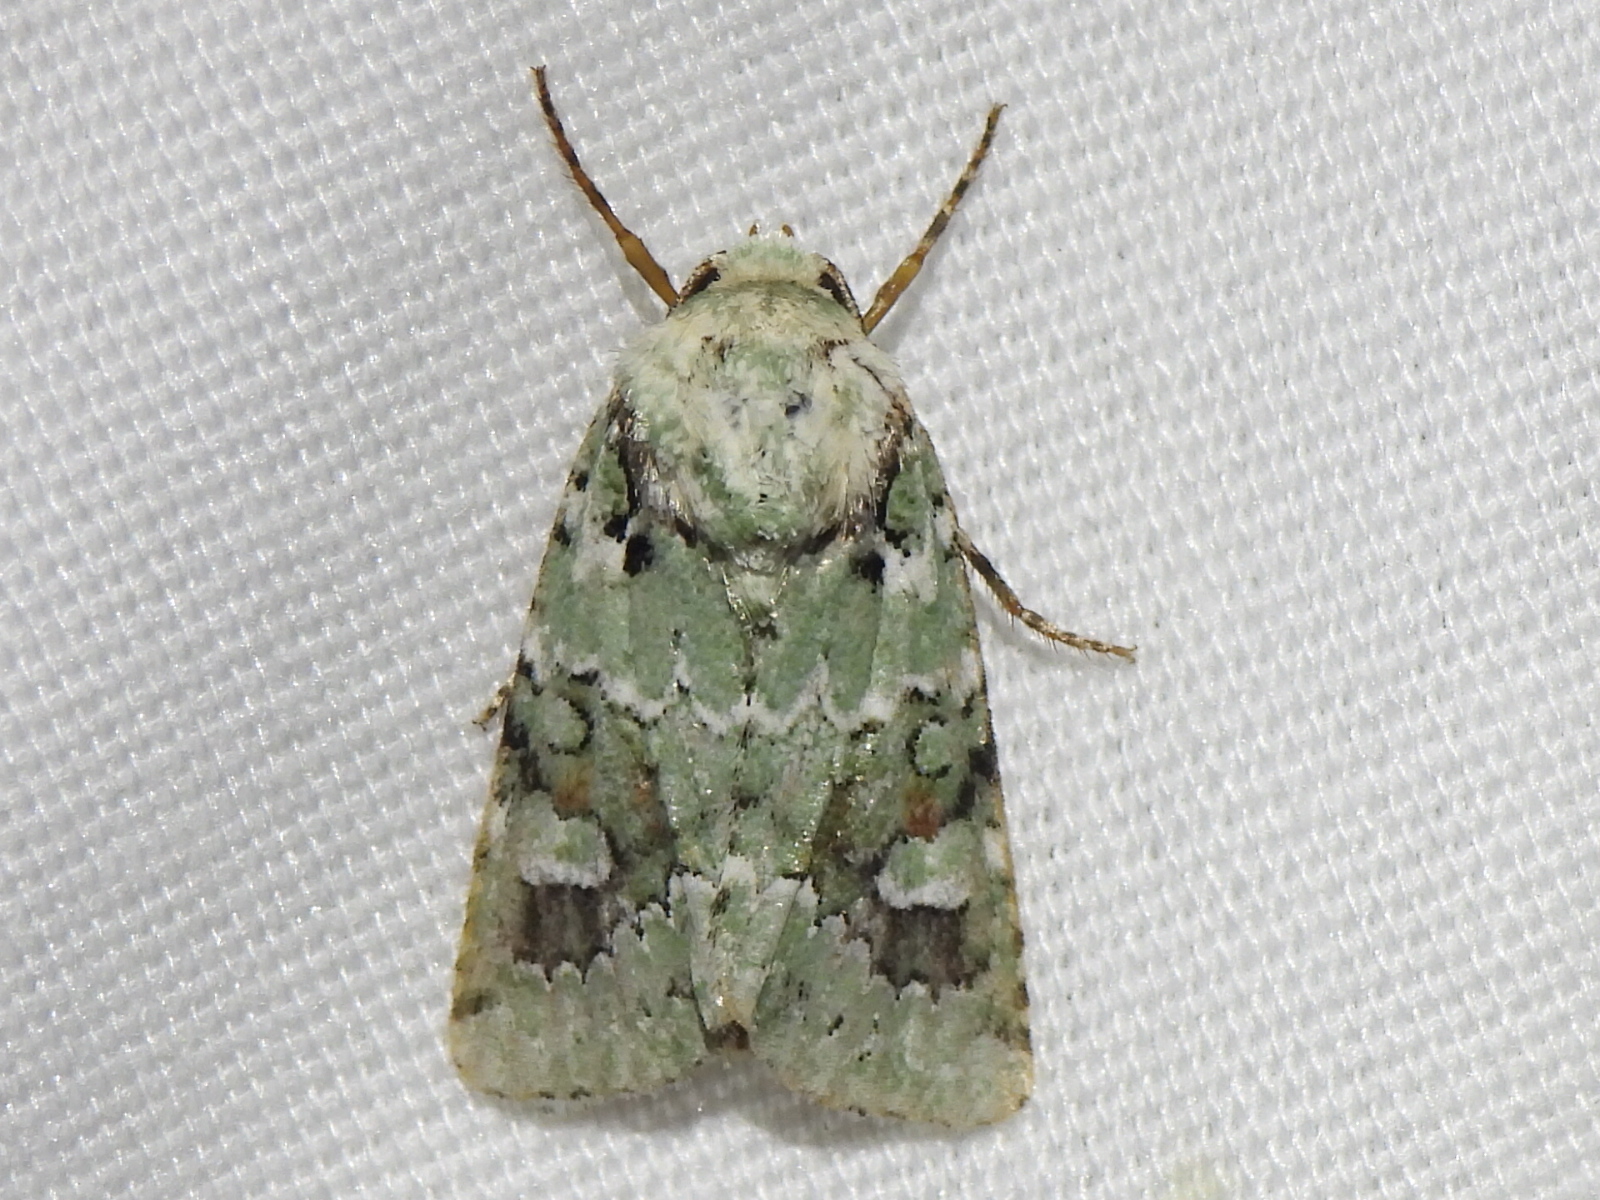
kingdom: Animalia
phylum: Arthropoda
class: Insecta
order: Lepidoptera
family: Noctuidae
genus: Lacinipolia
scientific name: Lacinipolia laudabilis
